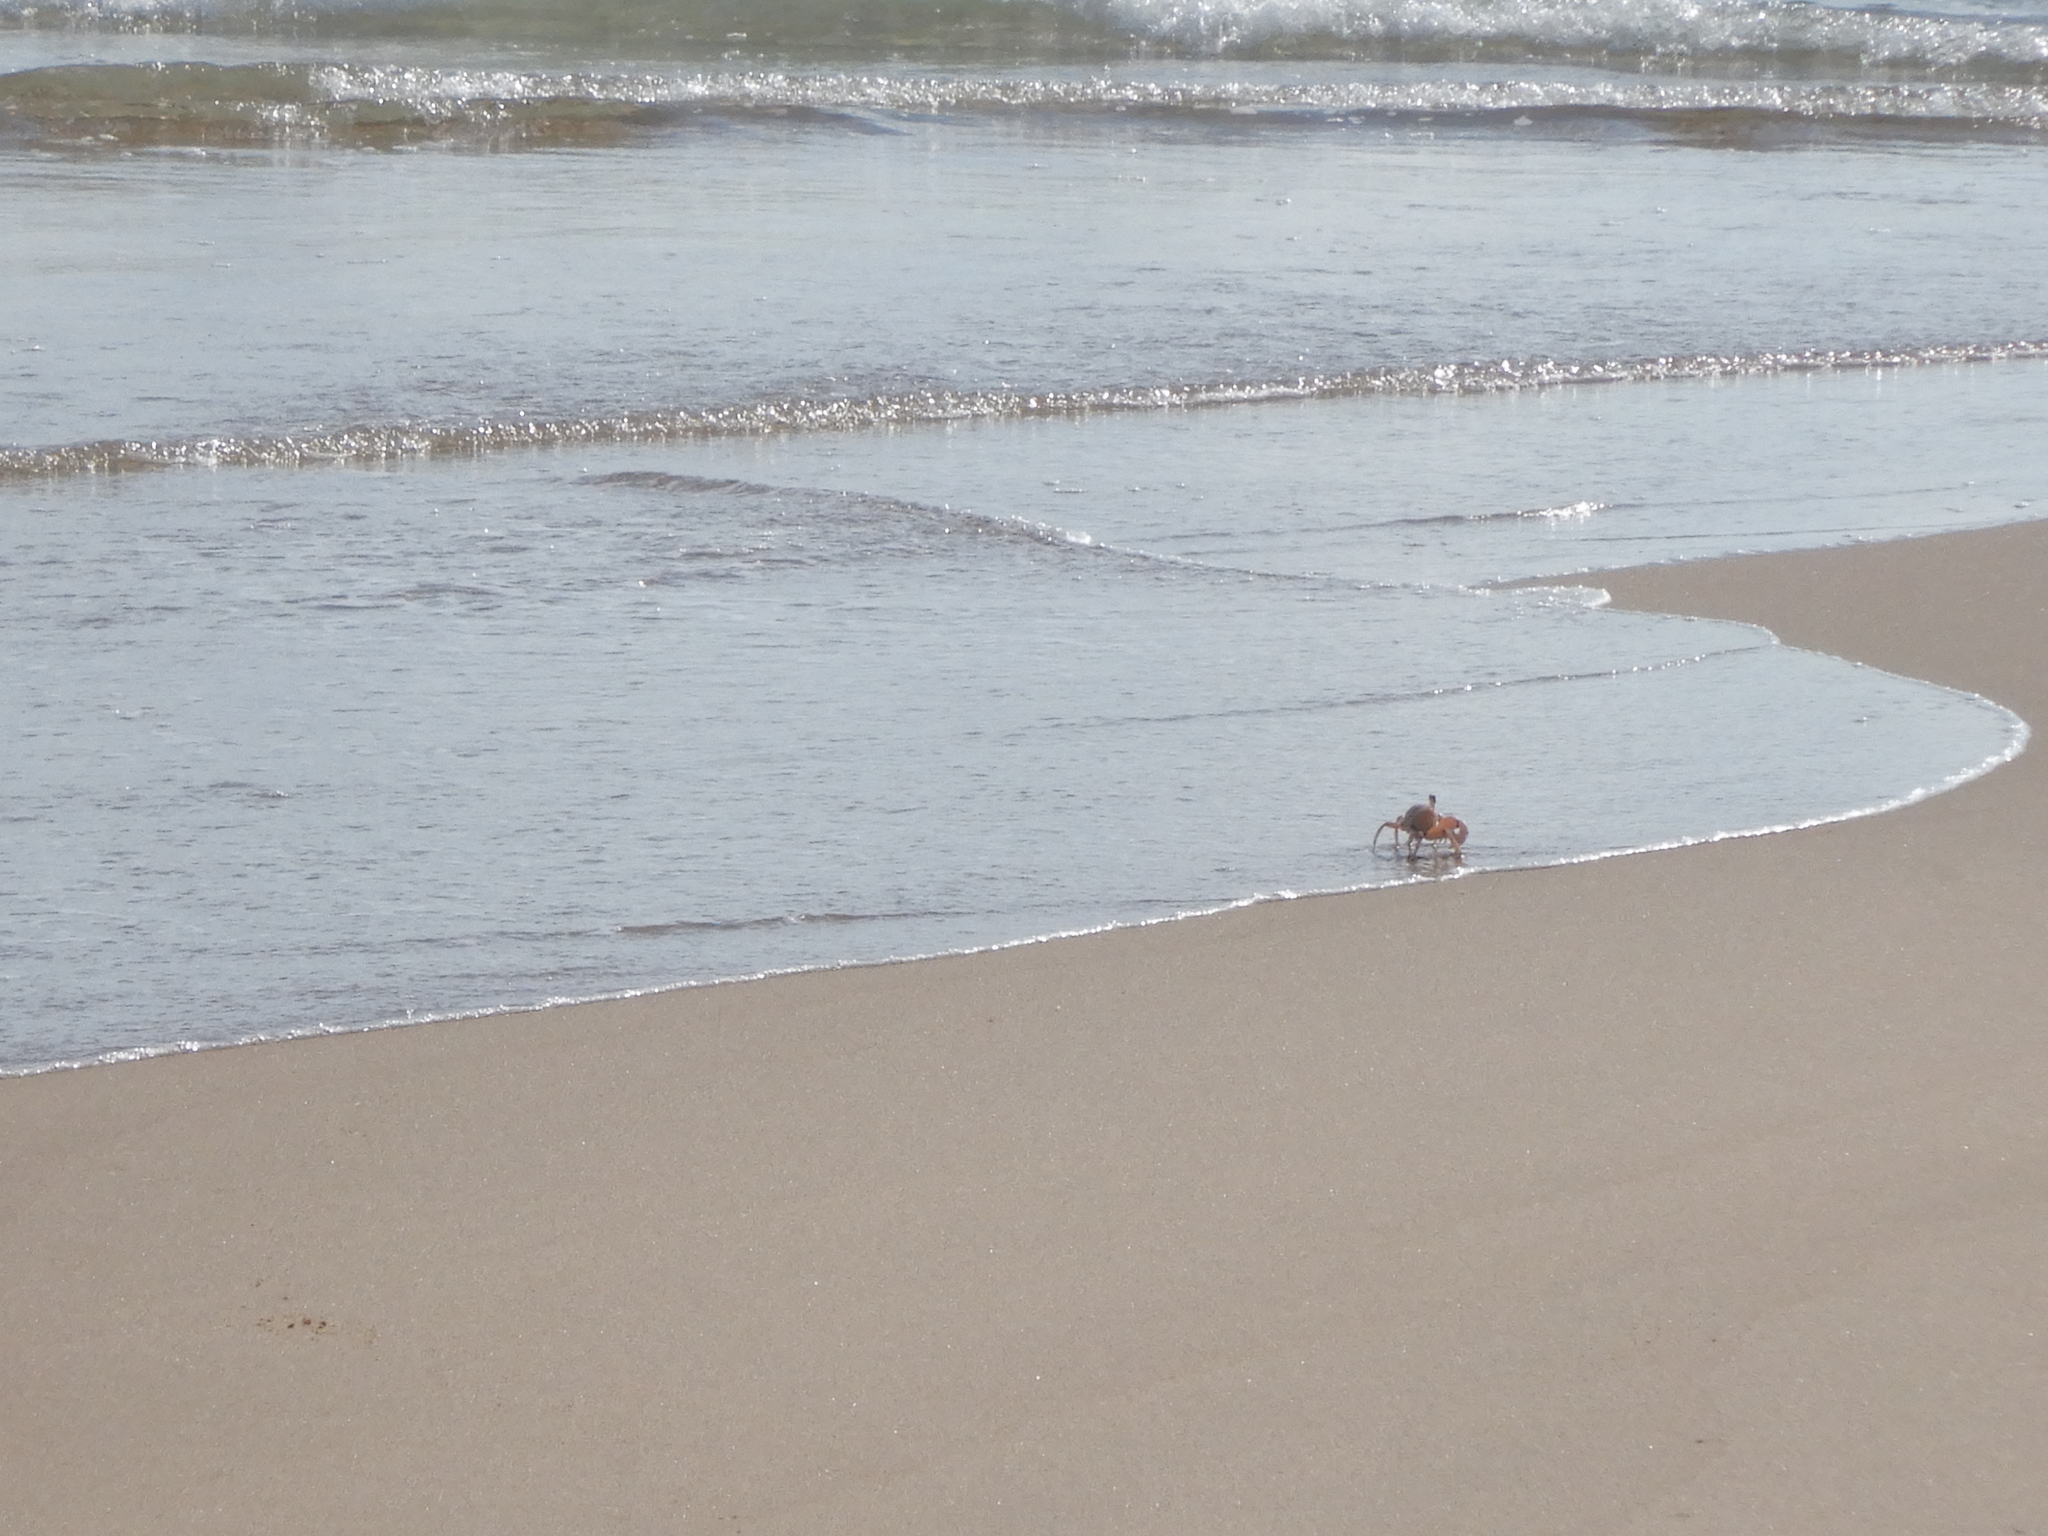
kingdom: Animalia
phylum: Arthropoda
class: Malacostraca
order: Decapoda
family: Ocypodidae
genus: Ocypode
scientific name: Ocypode ryderi
